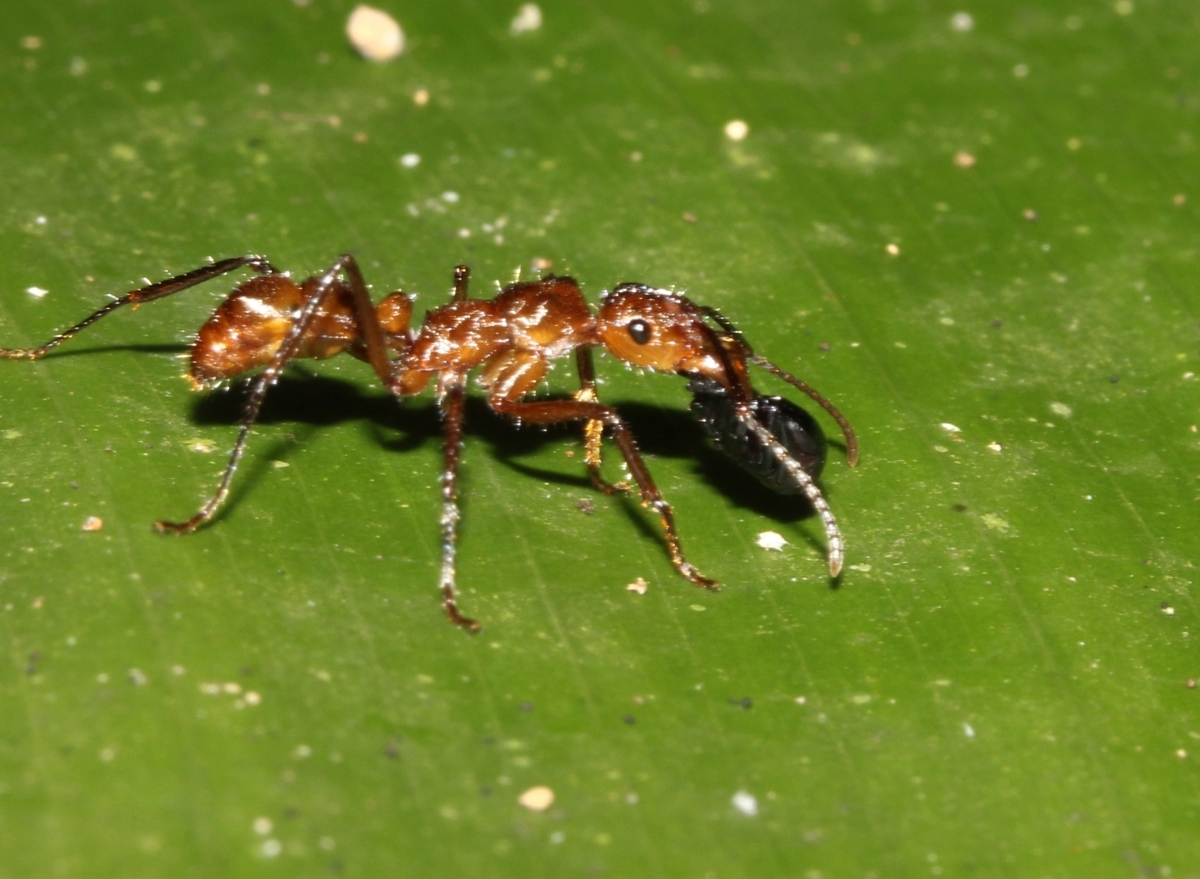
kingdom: Animalia
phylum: Arthropoda
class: Insecta
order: Hymenoptera
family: Formicidae
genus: Ectatomma
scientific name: Ectatomma tuberculatum
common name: Ant
